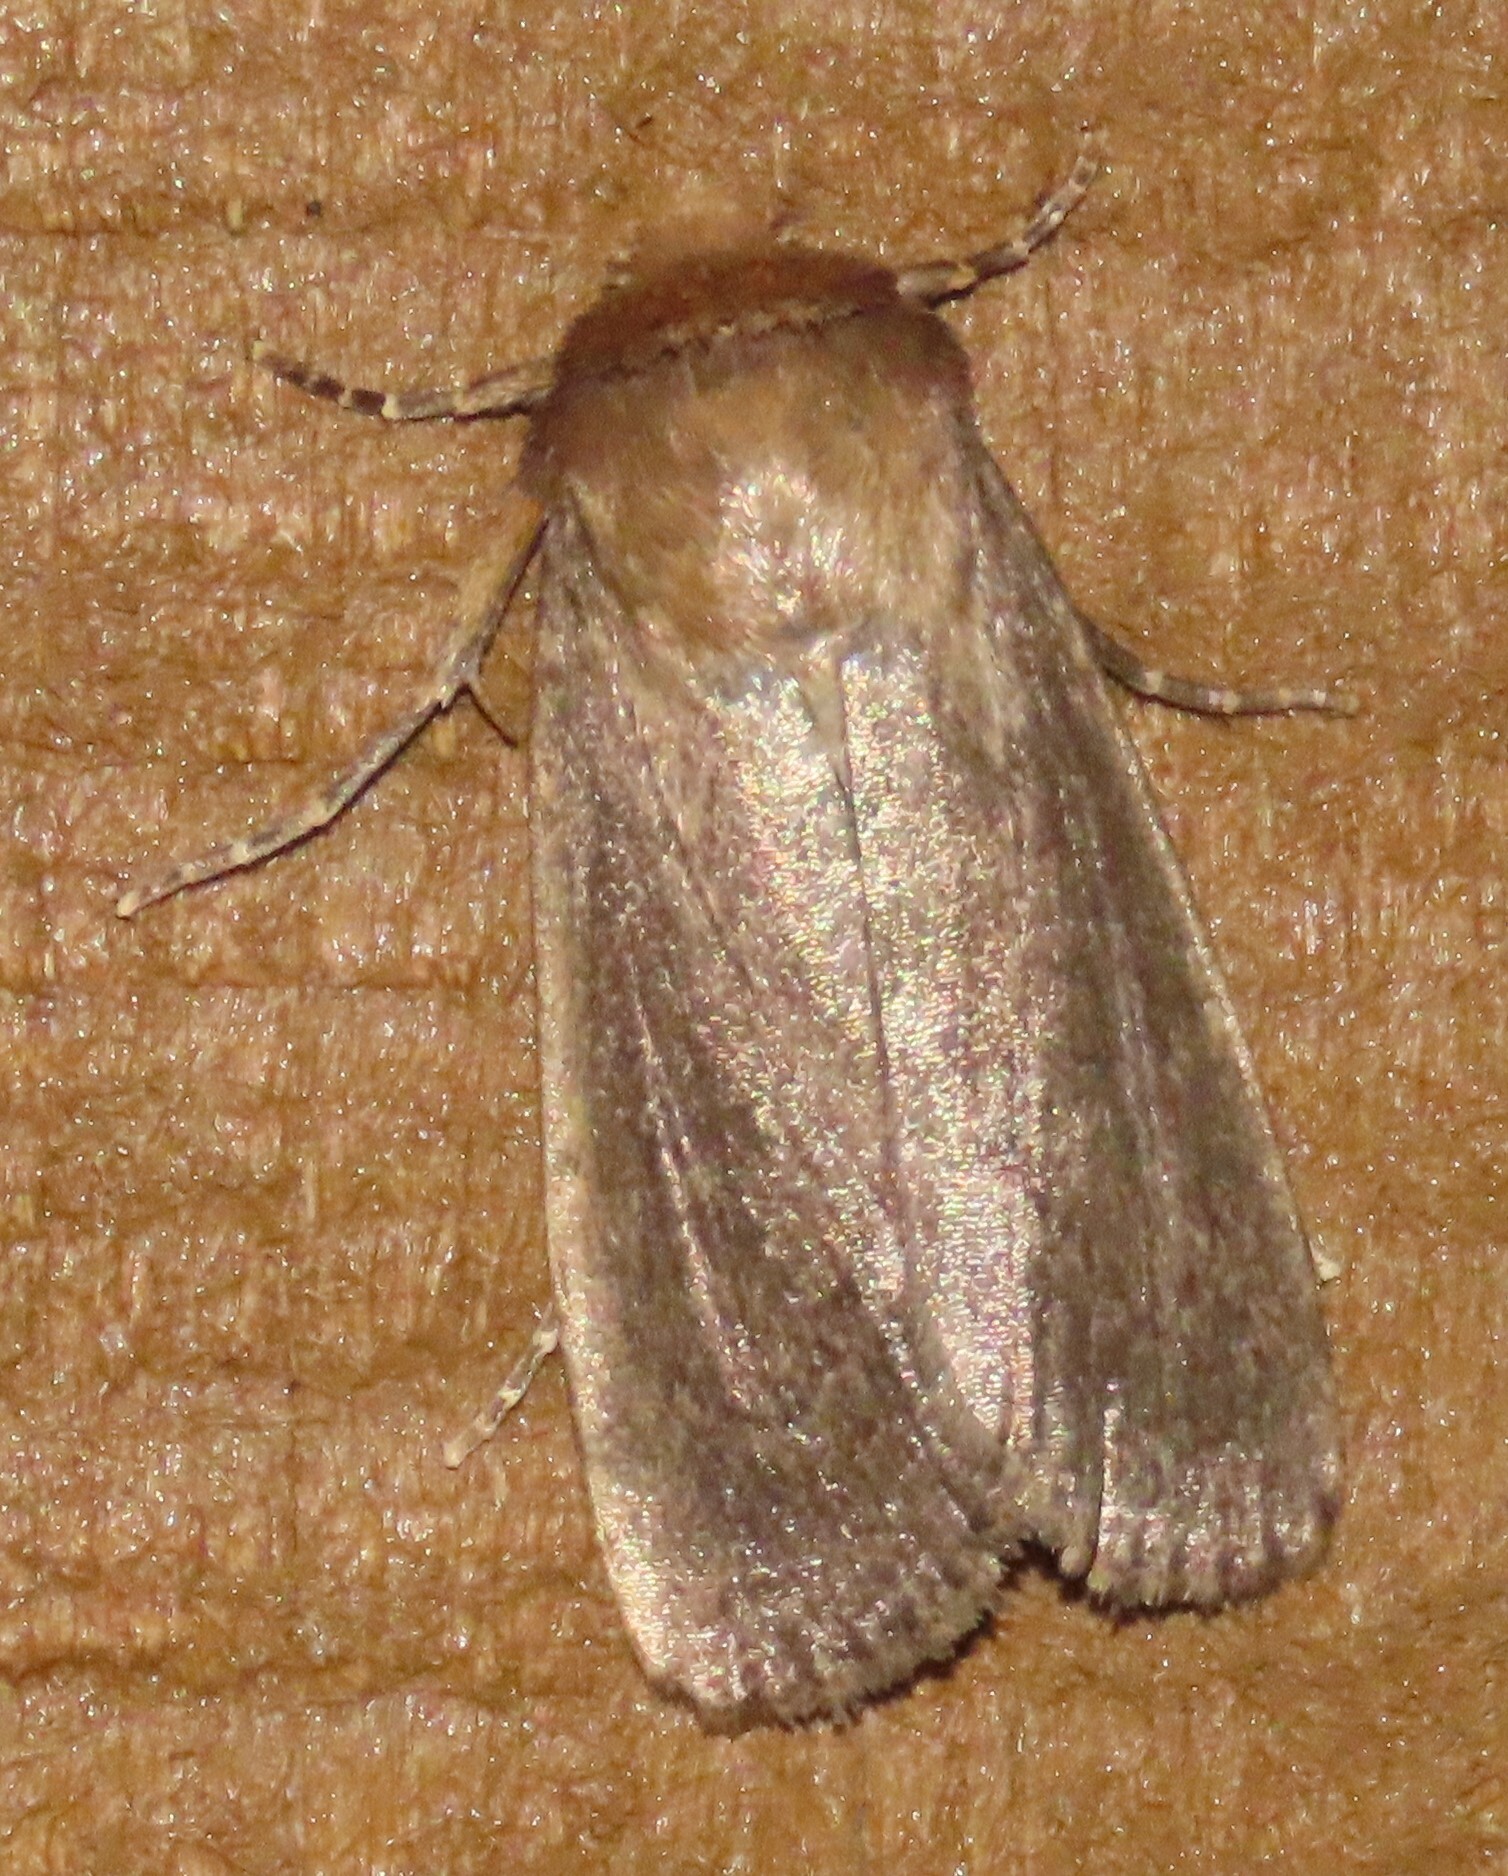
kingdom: Animalia
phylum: Arthropoda
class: Insecta
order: Lepidoptera
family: Noctuidae
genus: Bityla
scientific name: Bityla defigurata
